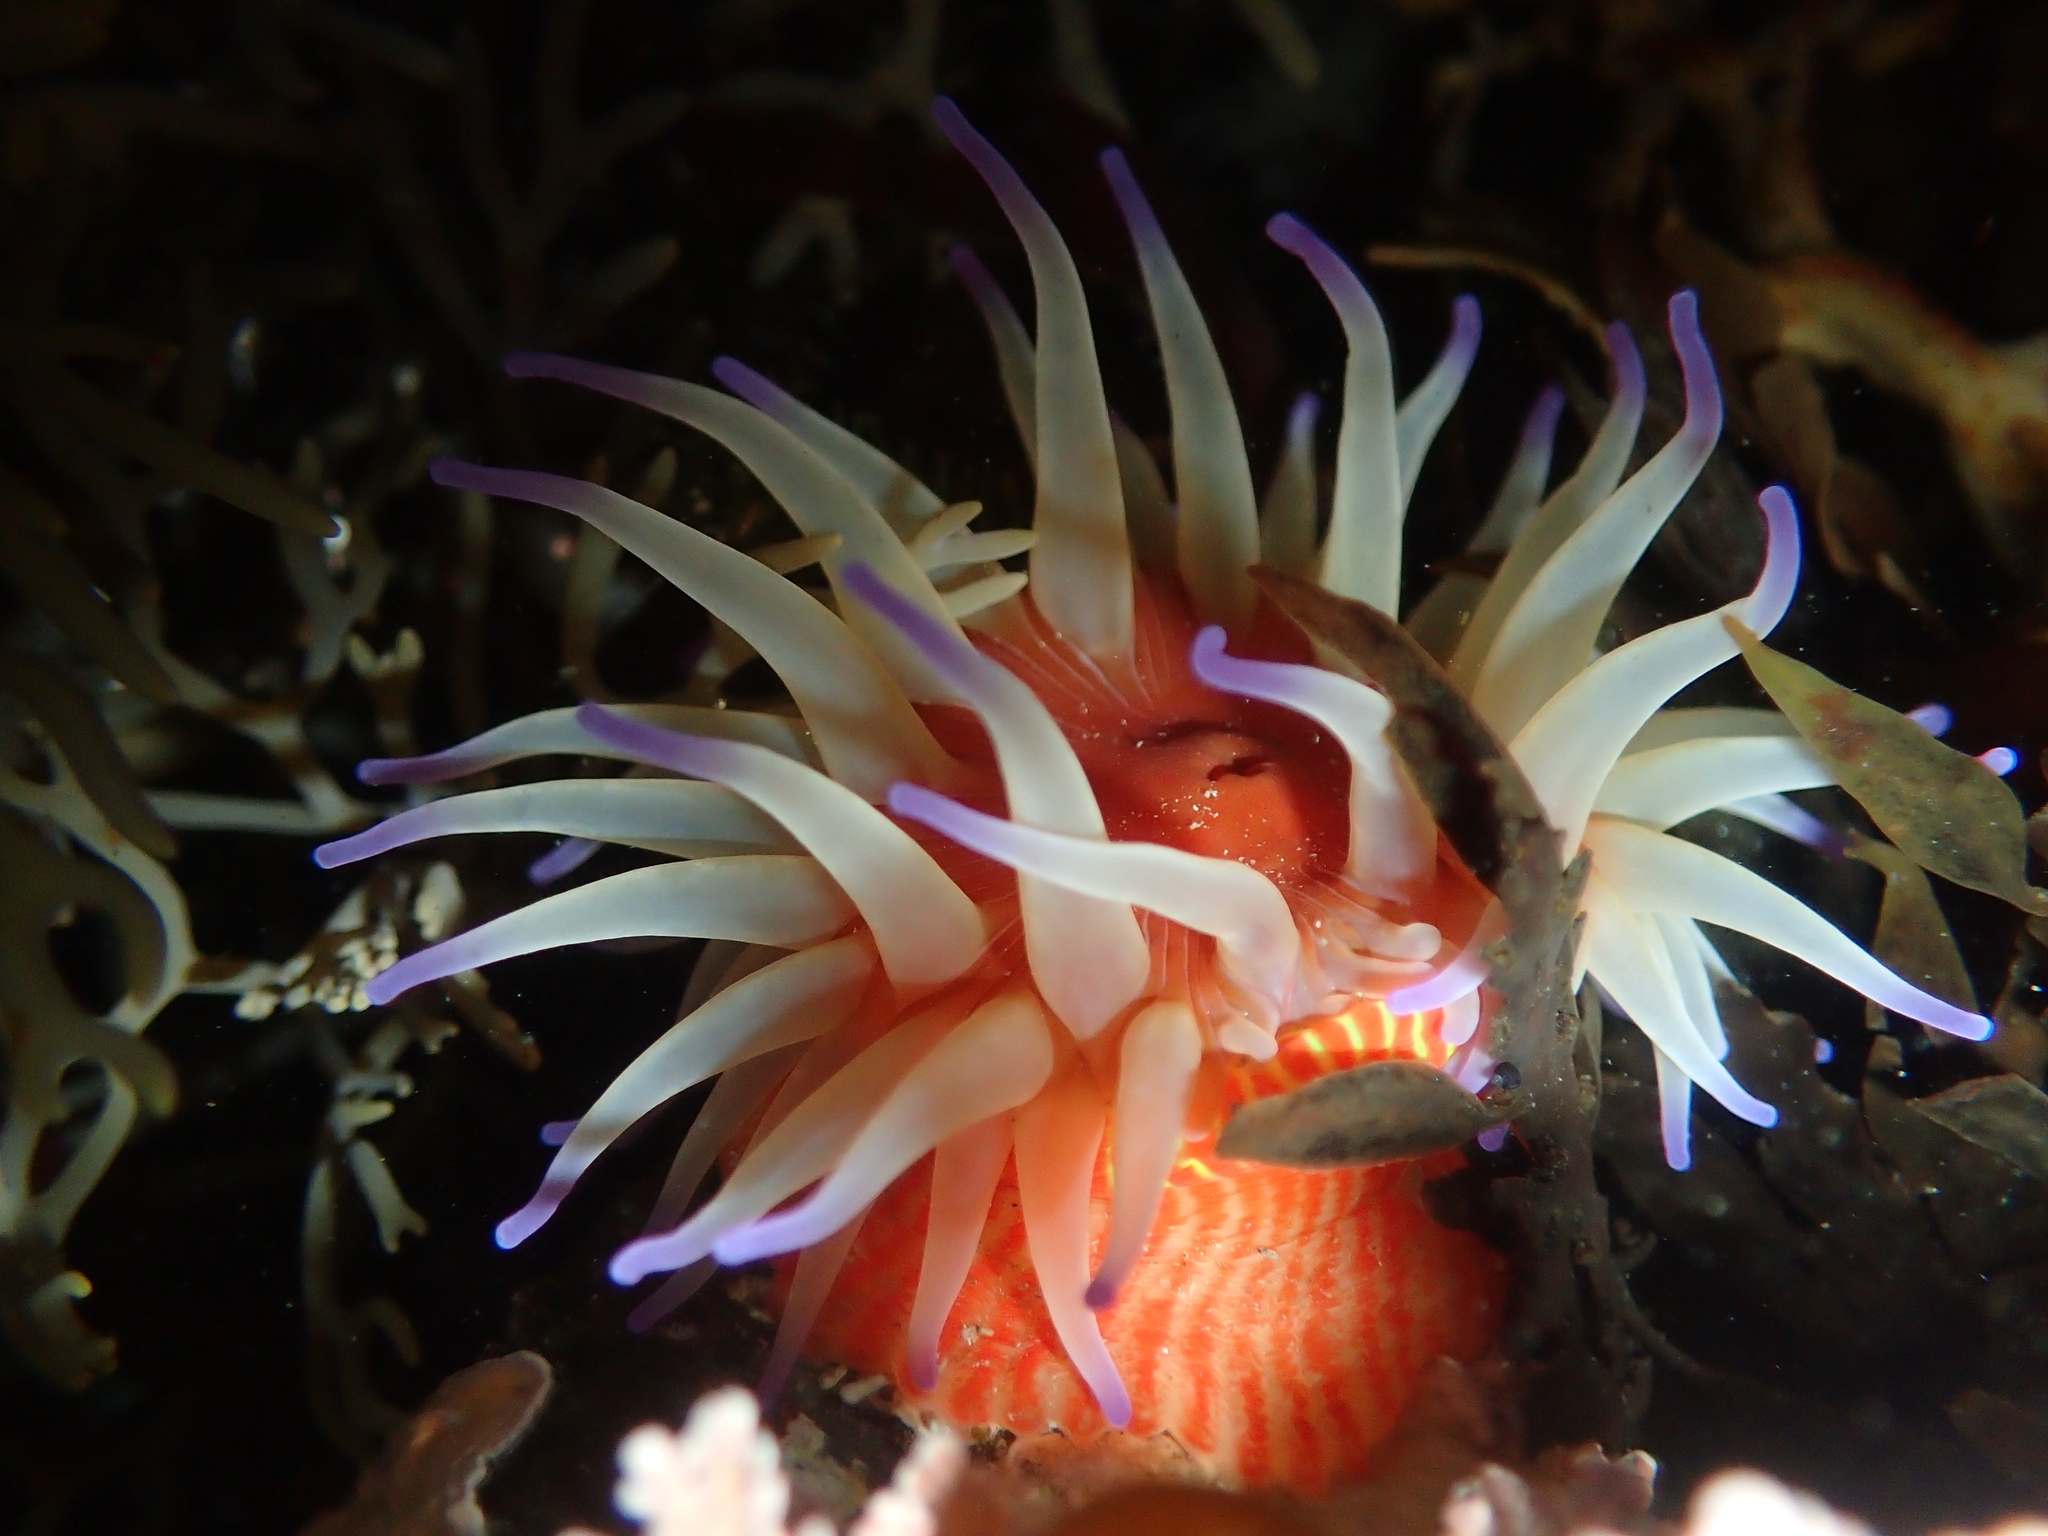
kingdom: Animalia
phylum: Cnidaria
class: Anthozoa
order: Actiniaria
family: Actiniidae
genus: Epiactis
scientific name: Epiactis thompsoni
